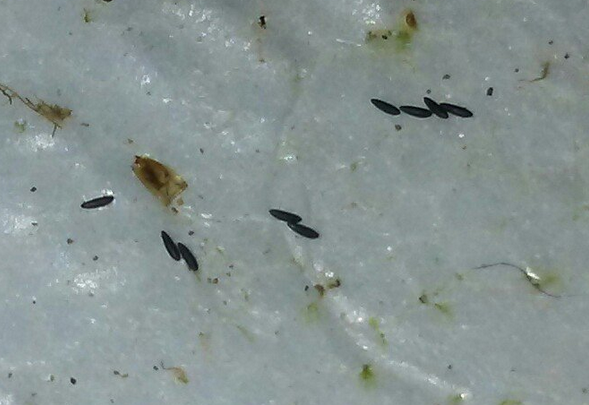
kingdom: Animalia
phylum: Arthropoda
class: Insecta
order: Diptera
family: Culicidae
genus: Aedes
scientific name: Aedes albopictus
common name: Tiger mosquito
